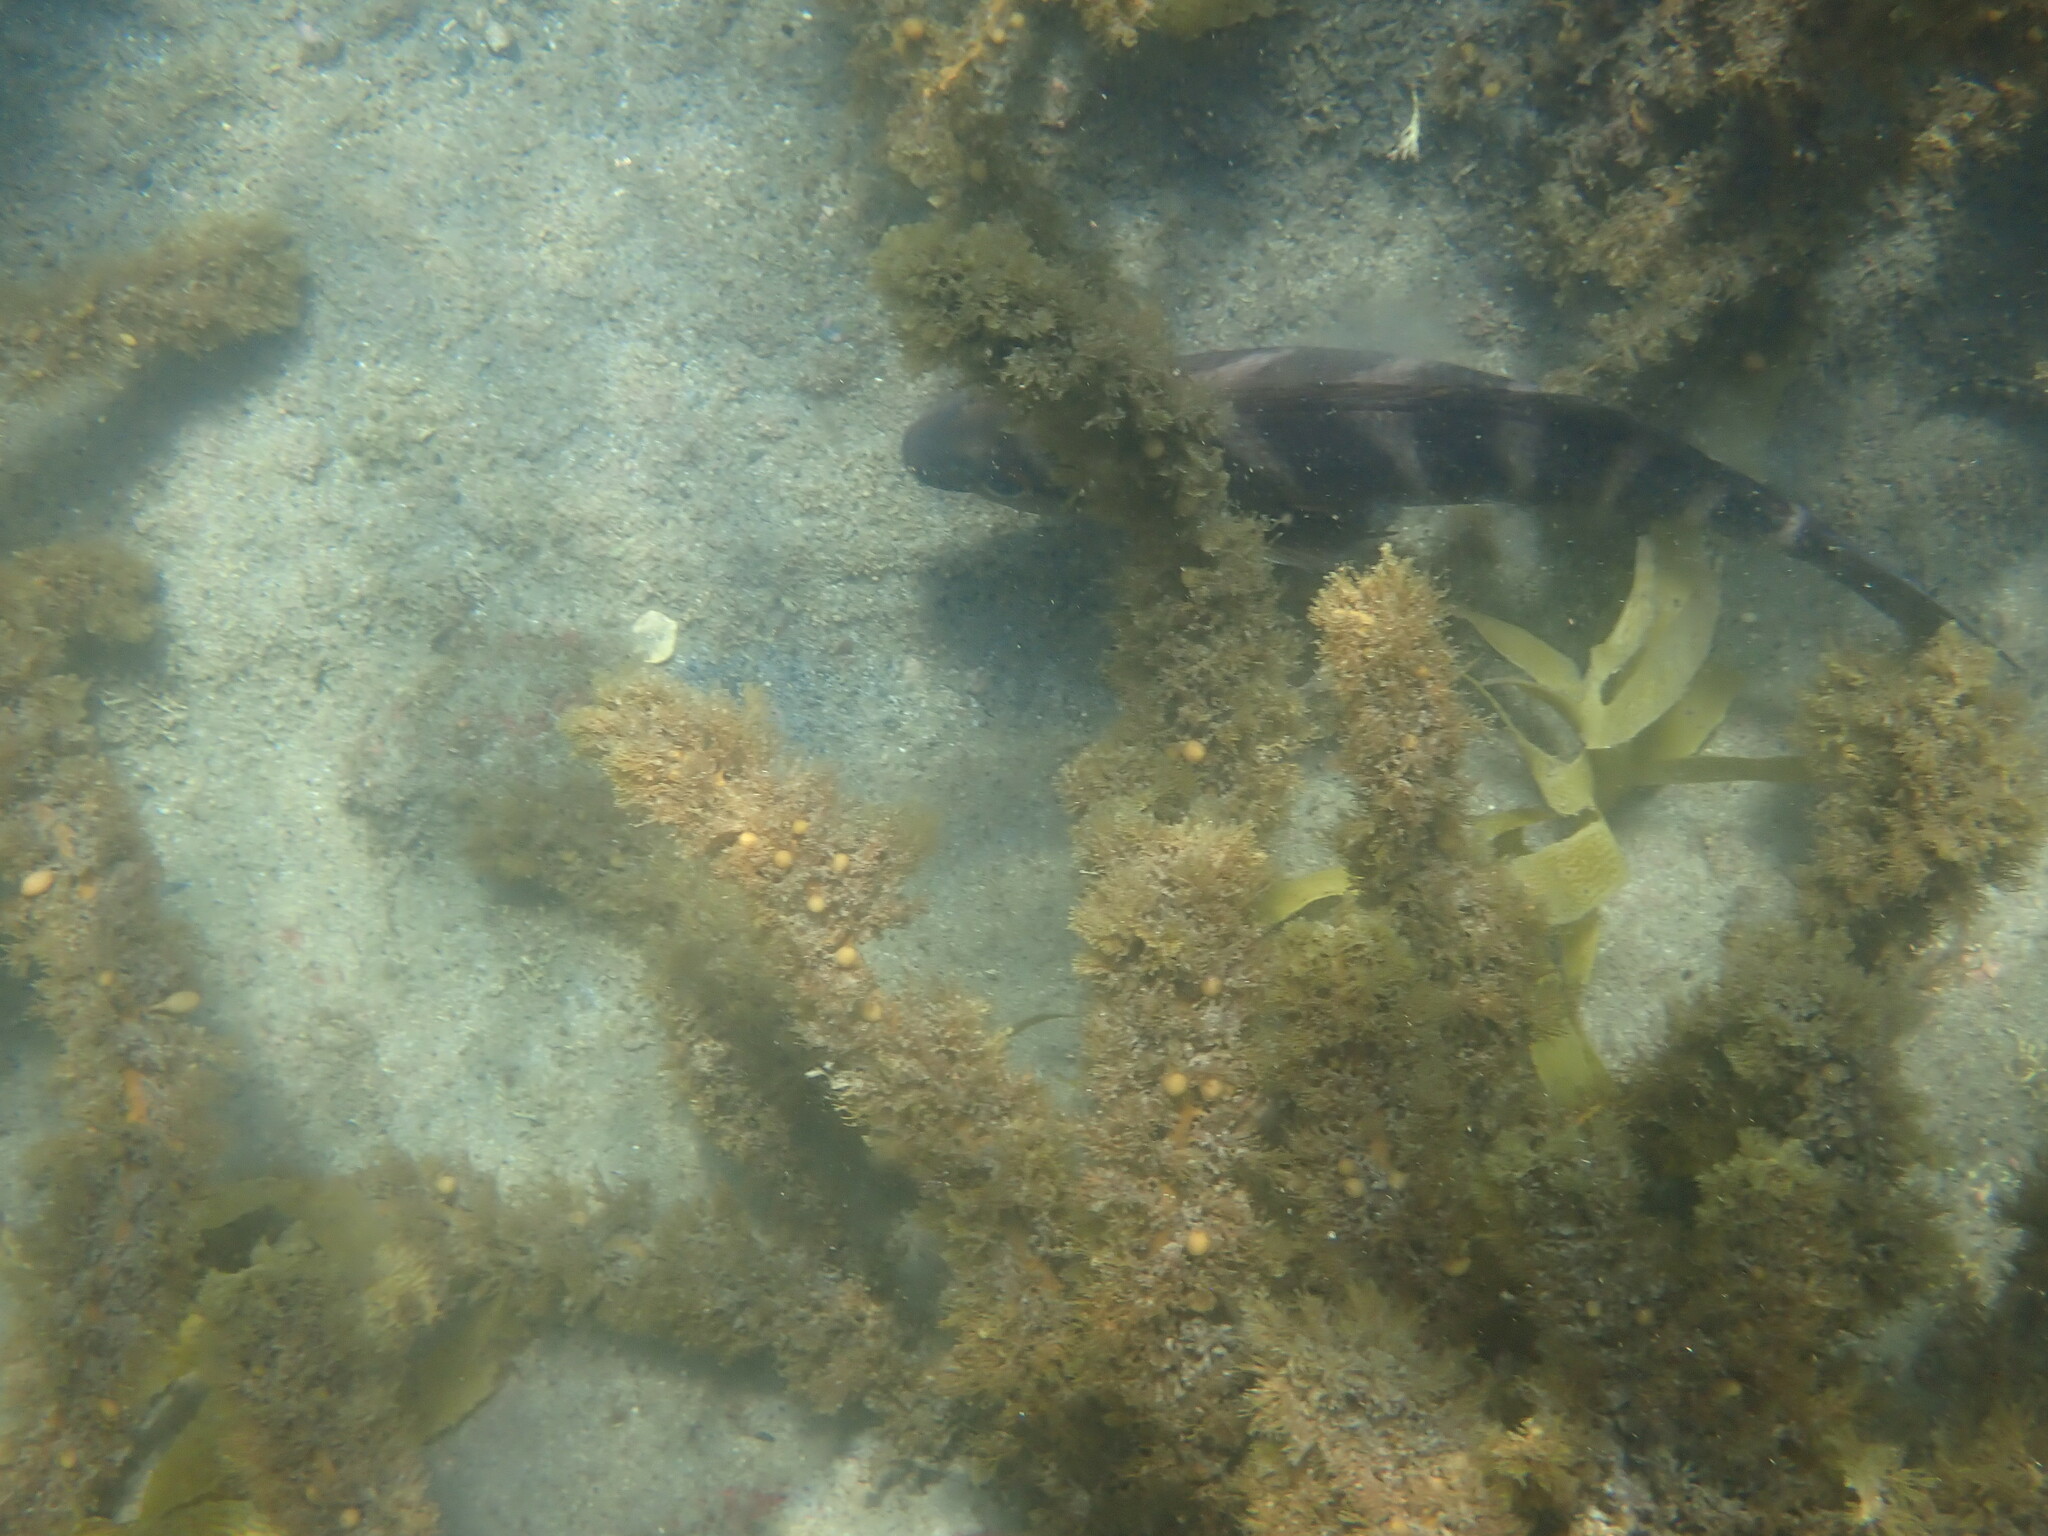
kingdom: Animalia
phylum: Chordata
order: Perciformes
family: Cheilodactylidae
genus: Cheilodactylus
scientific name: Cheilodactylus spectabilis
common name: Red moki
